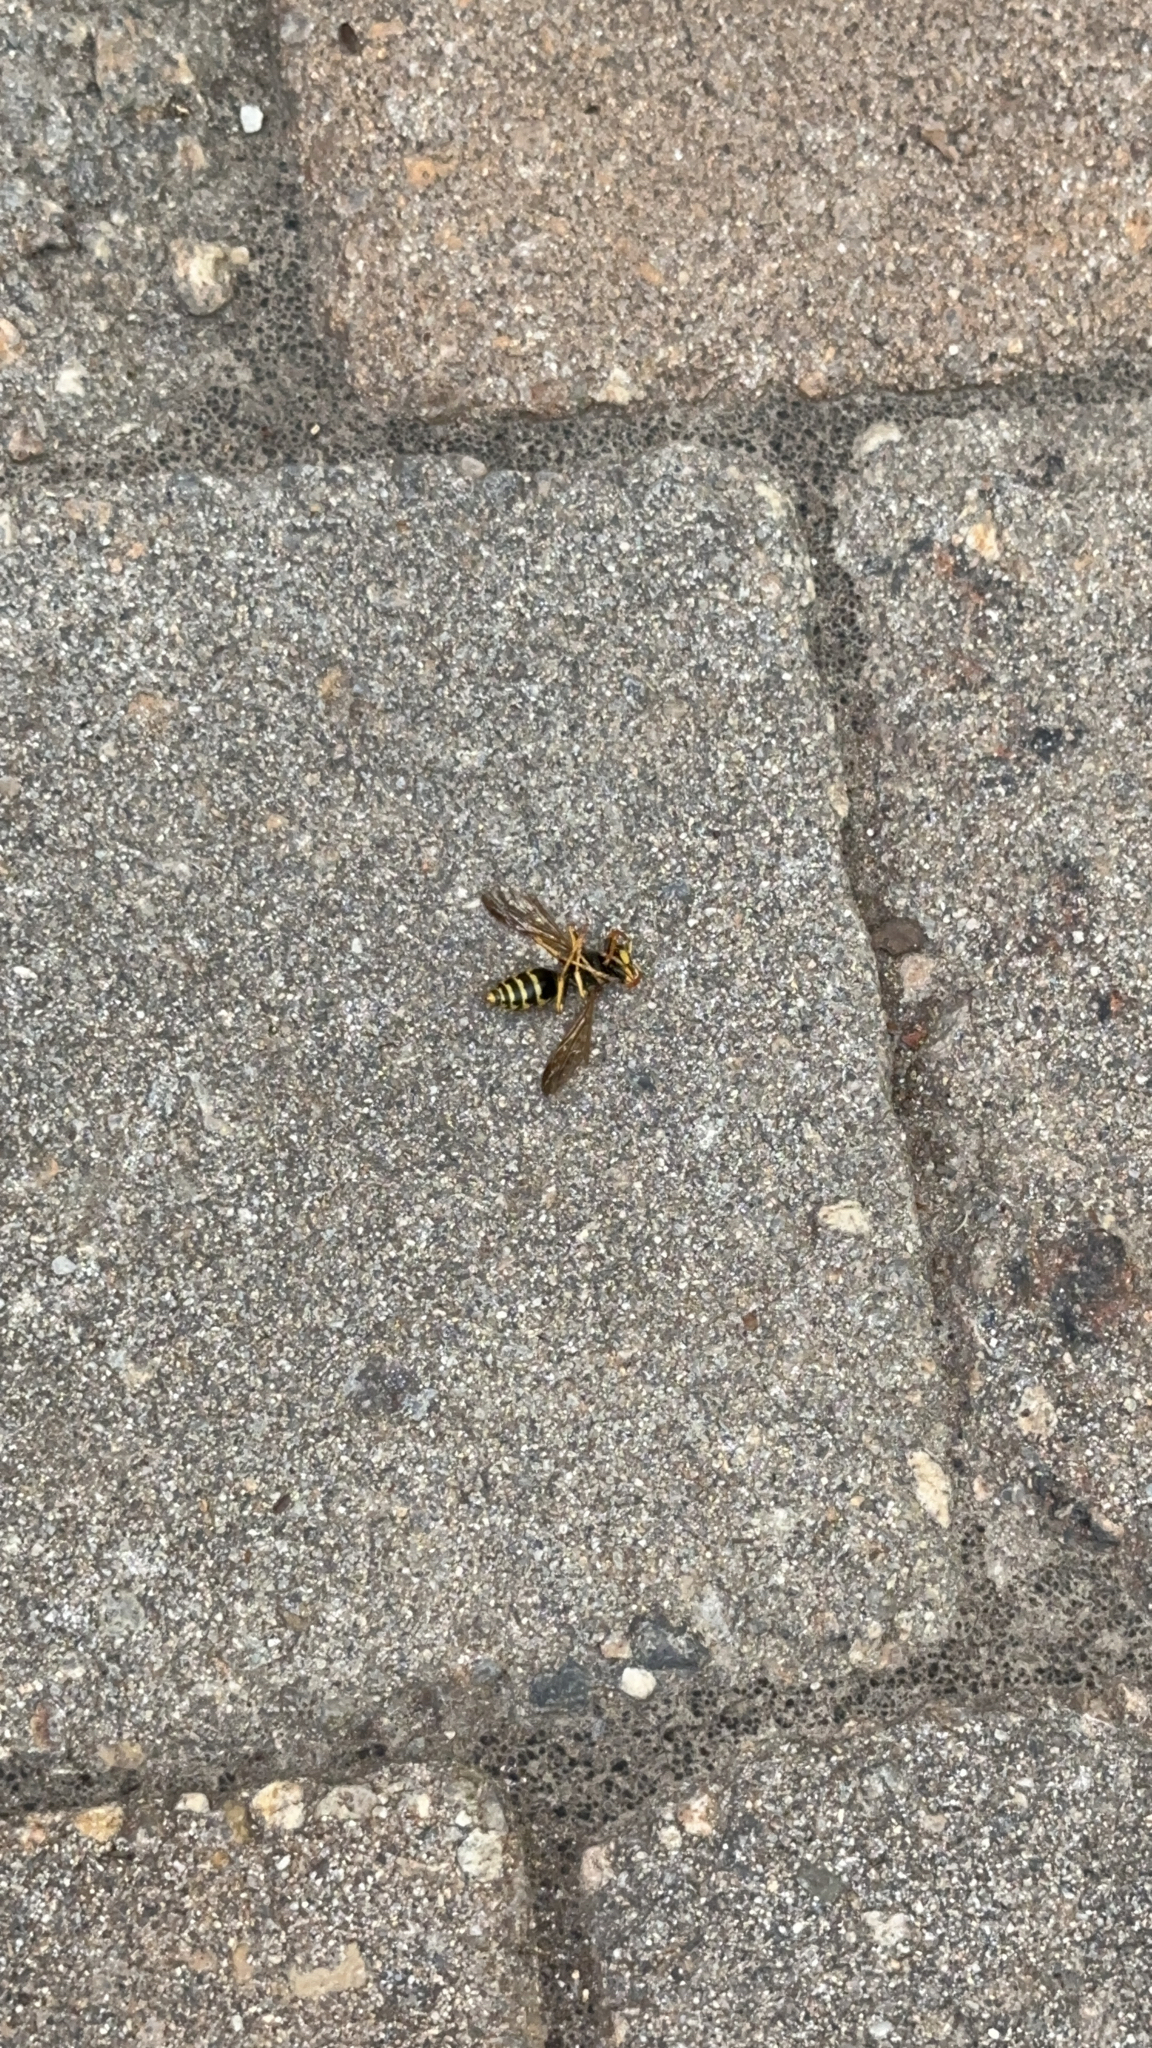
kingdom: Animalia
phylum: Arthropoda
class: Insecta
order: Hymenoptera
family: Eumenidae
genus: Polistes
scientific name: Polistes dominula
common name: Paper wasp
